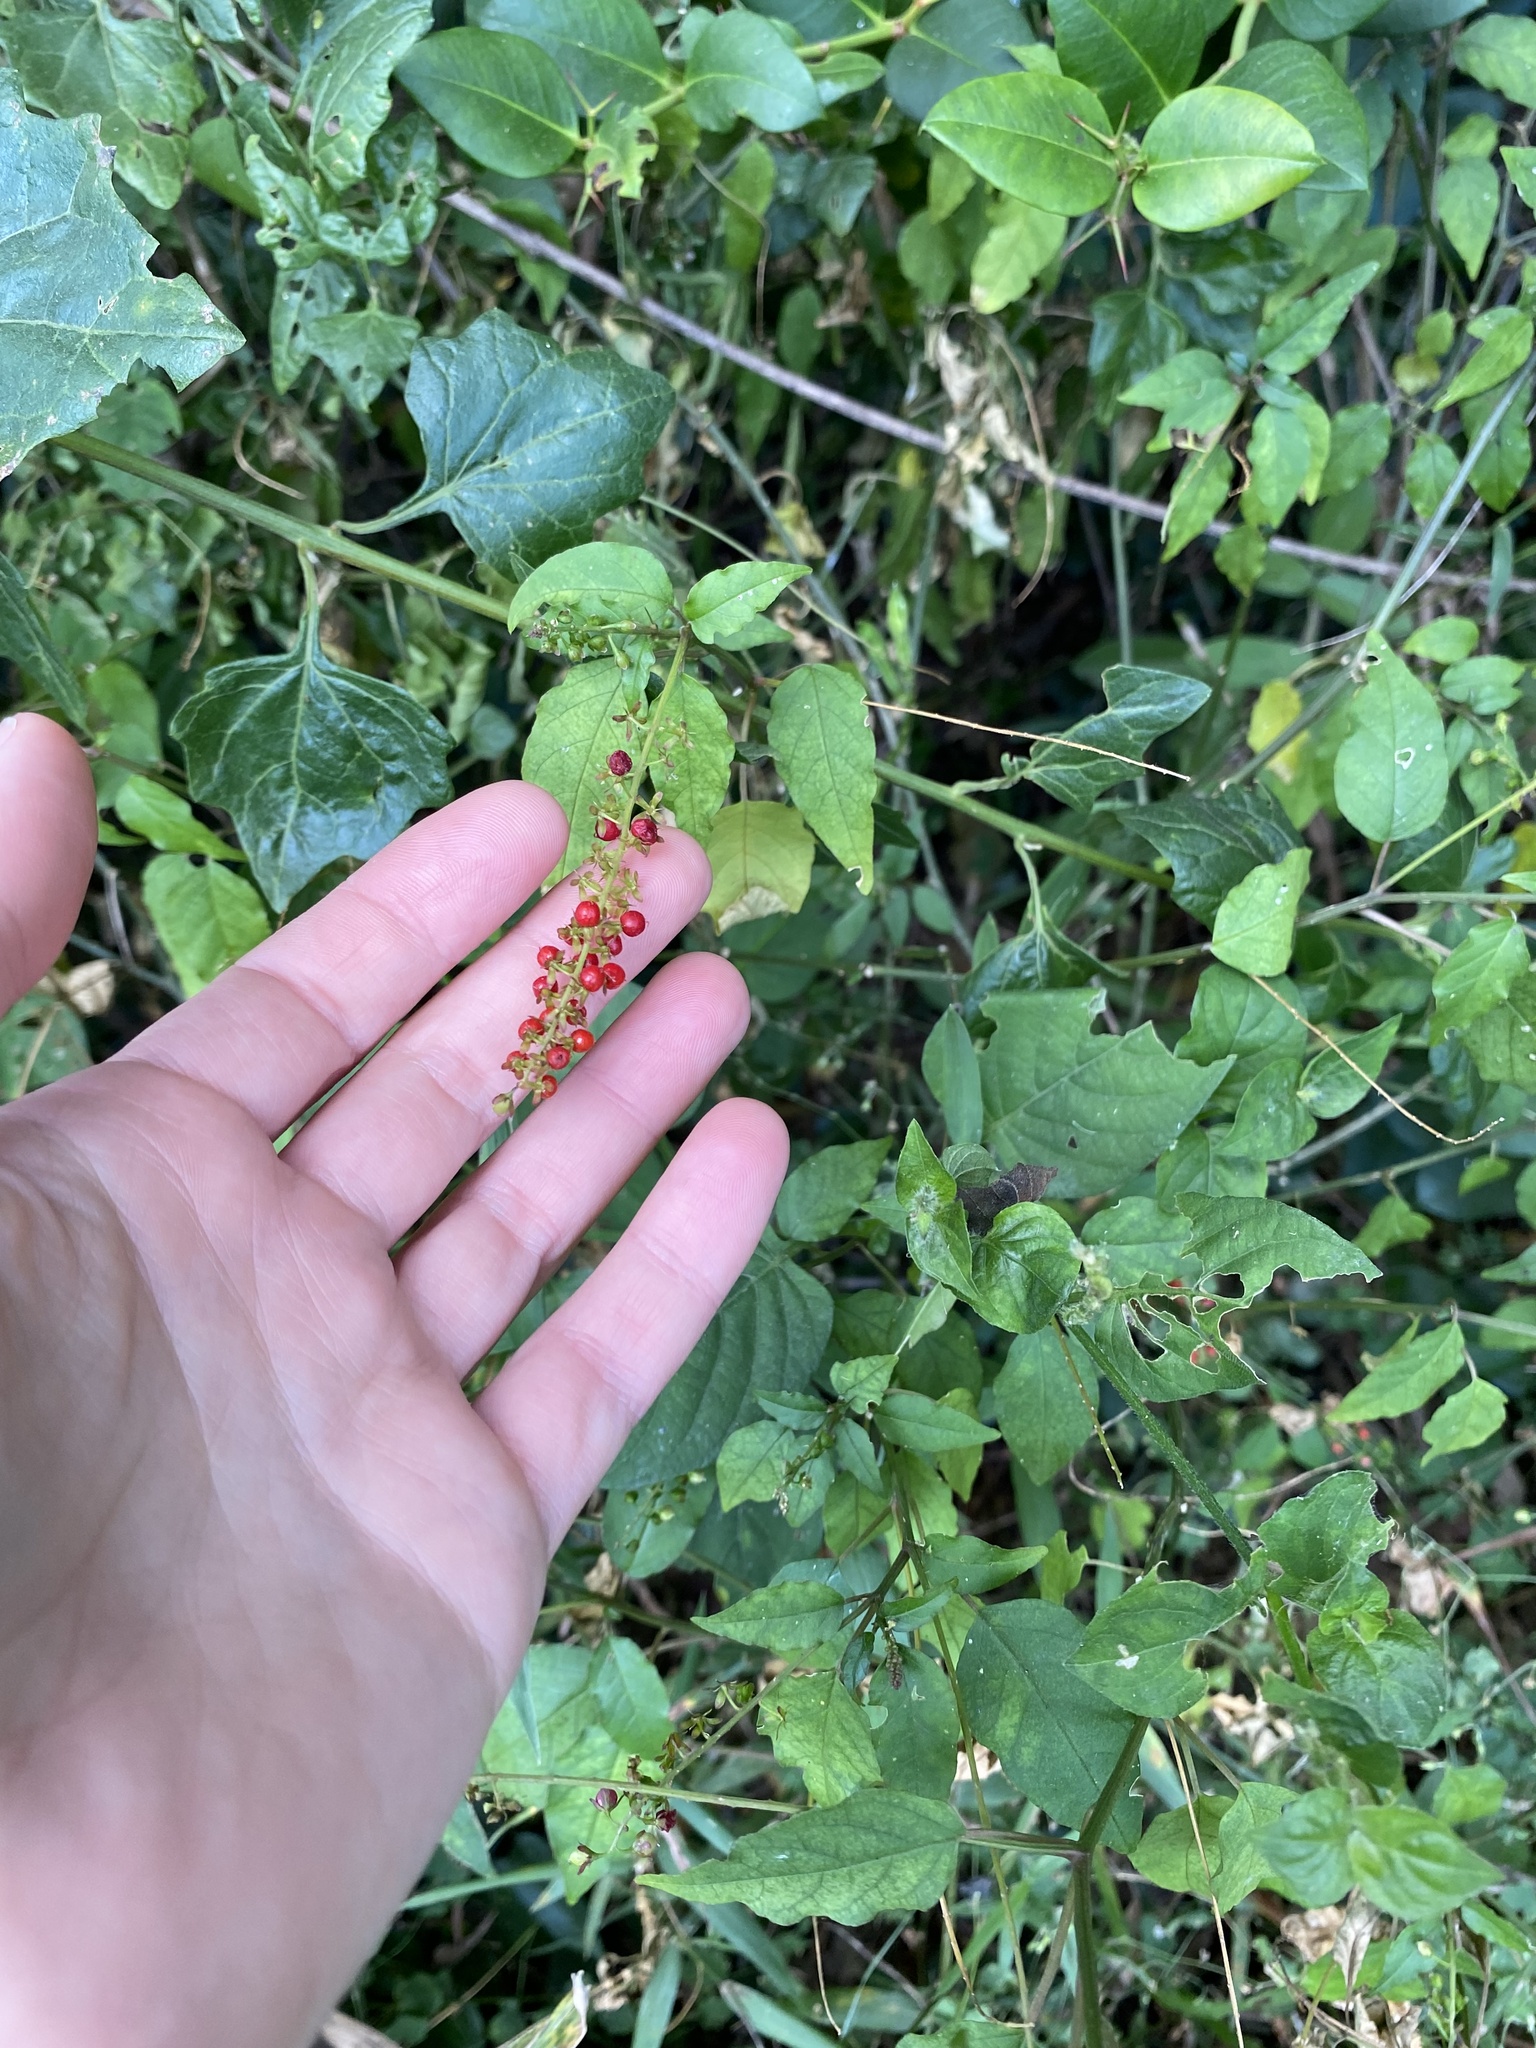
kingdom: Plantae
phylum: Tracheophyta
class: Magnoliopsida
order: Caryophyllales
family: Phytolaccaceae
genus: Rivina
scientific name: Rivina humilis
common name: Rougeplant
